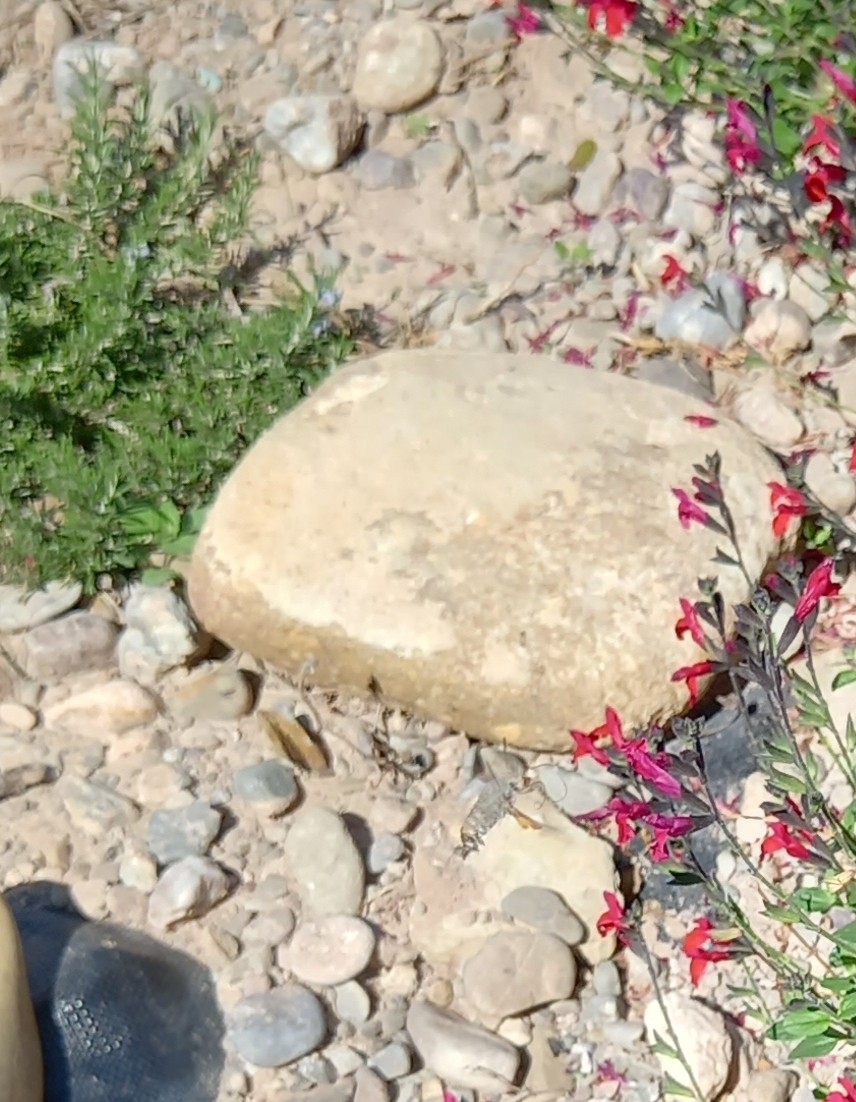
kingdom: Animalia
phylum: Arthropoda
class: Insecta
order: Lepidoptera
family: Sphingidae
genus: Macroglossum
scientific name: Macroglossum stellatarum
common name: Humming-bird hawk-moth
